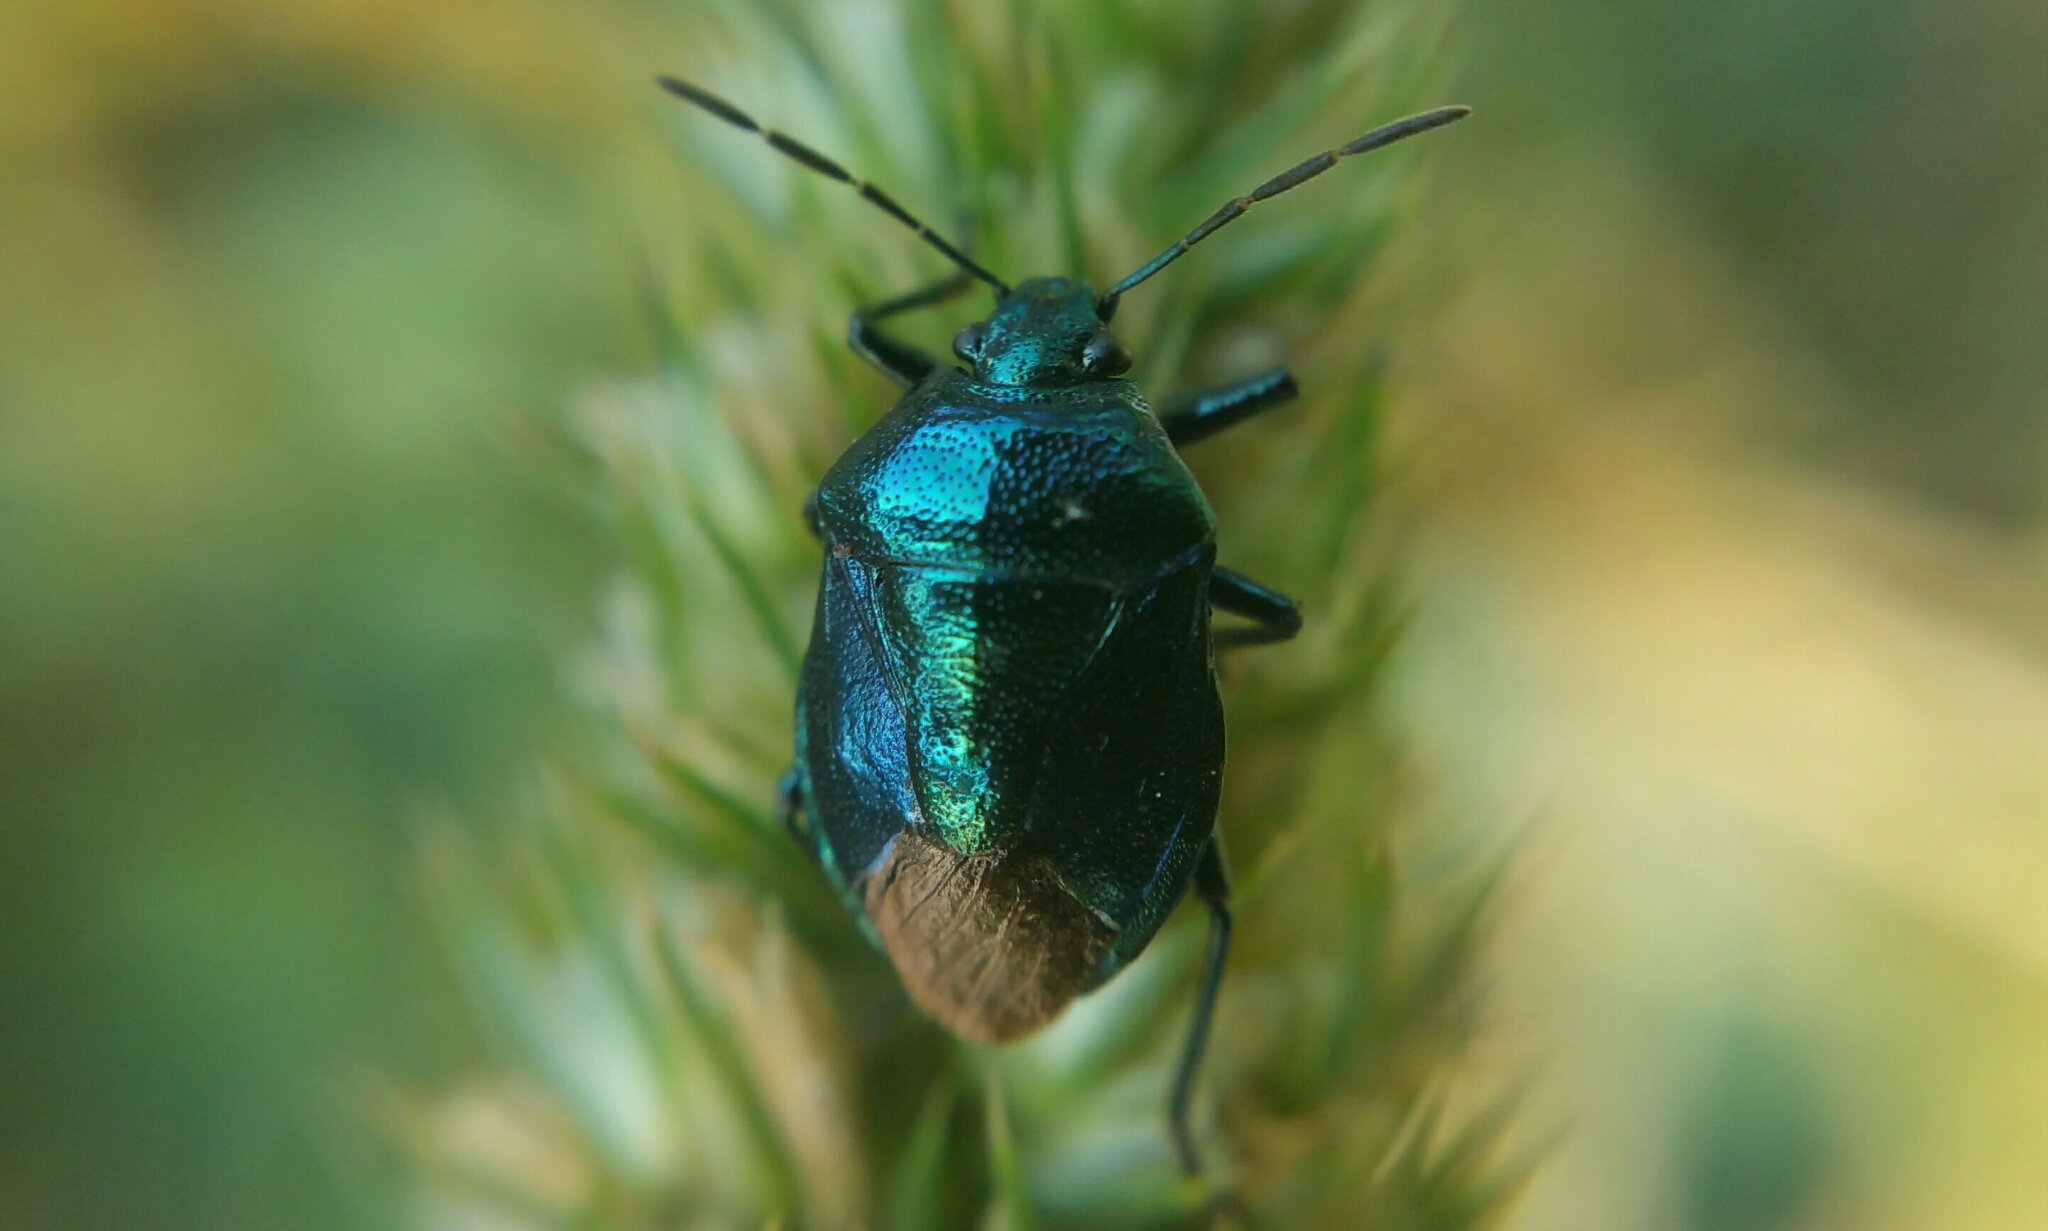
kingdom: Animalia
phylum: Arthropoda
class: Insecta
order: Hemiptera
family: Pentatomidae
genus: Zicrona
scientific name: Zicrona caerulea
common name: Blue shieldbug
